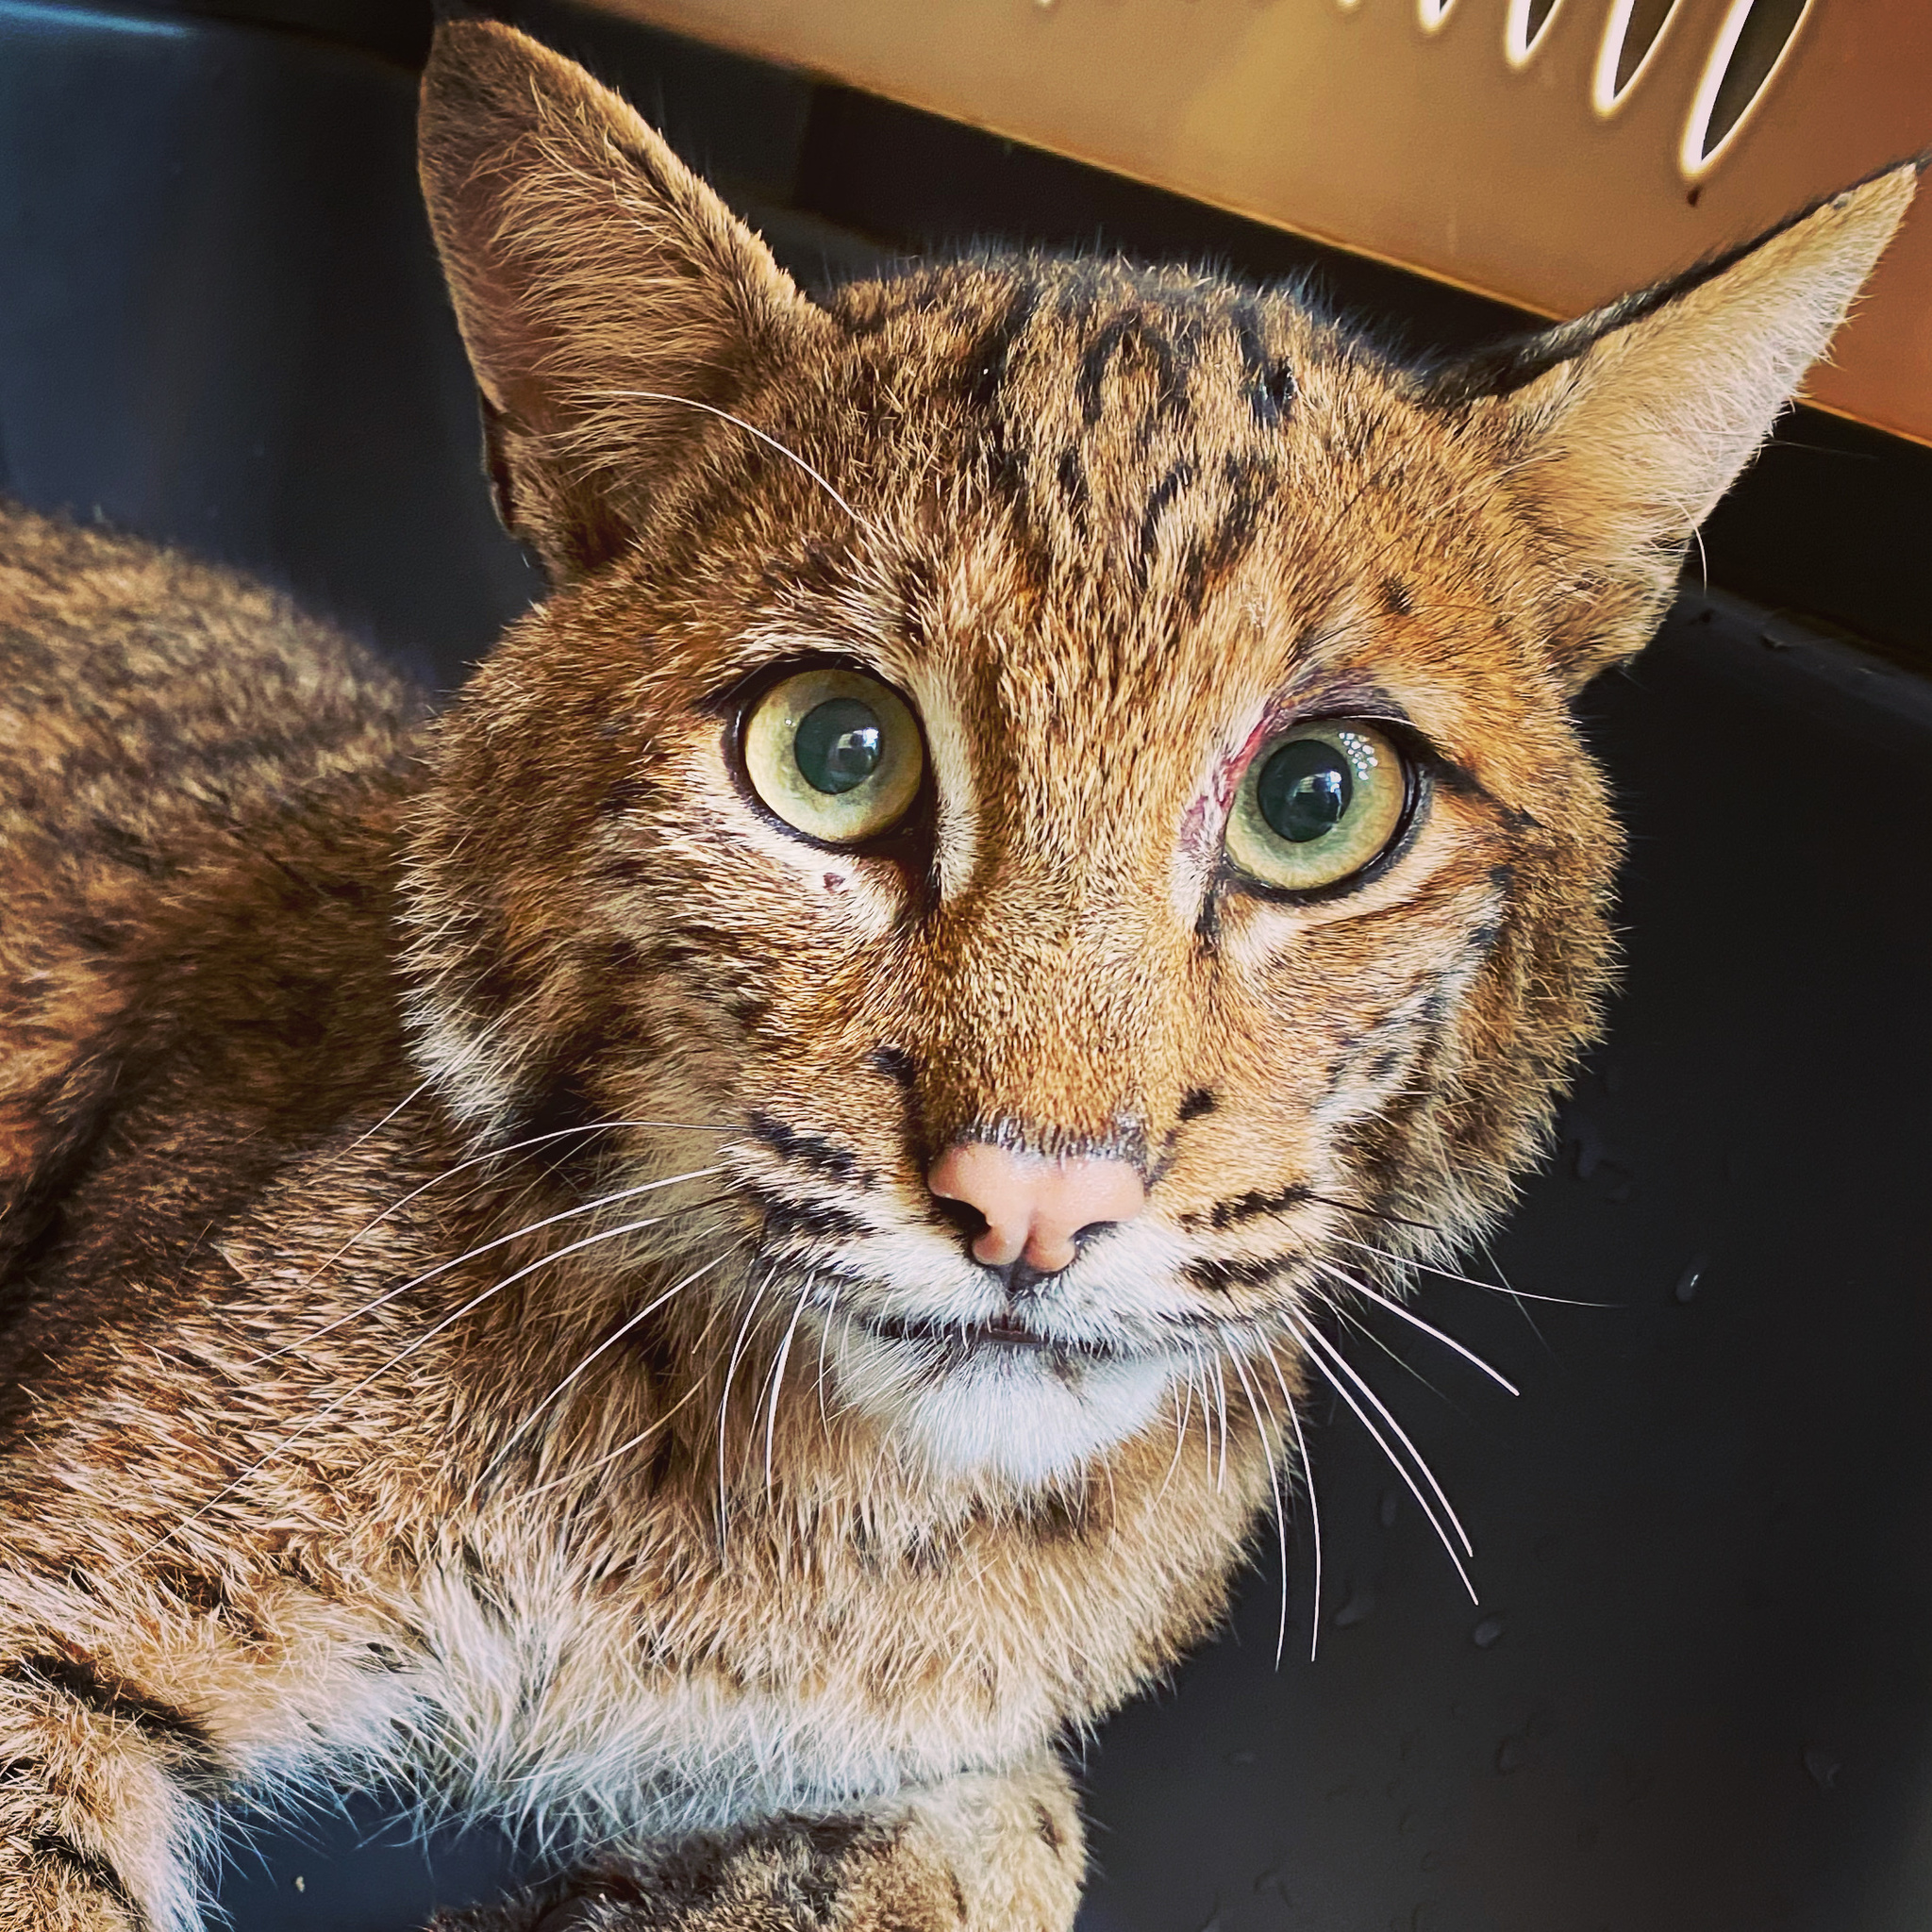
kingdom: Animalia
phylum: Chordata
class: Mammalia
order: Carnivora
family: Felidae
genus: Lynx
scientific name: Lynx rufus
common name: Bobcat
